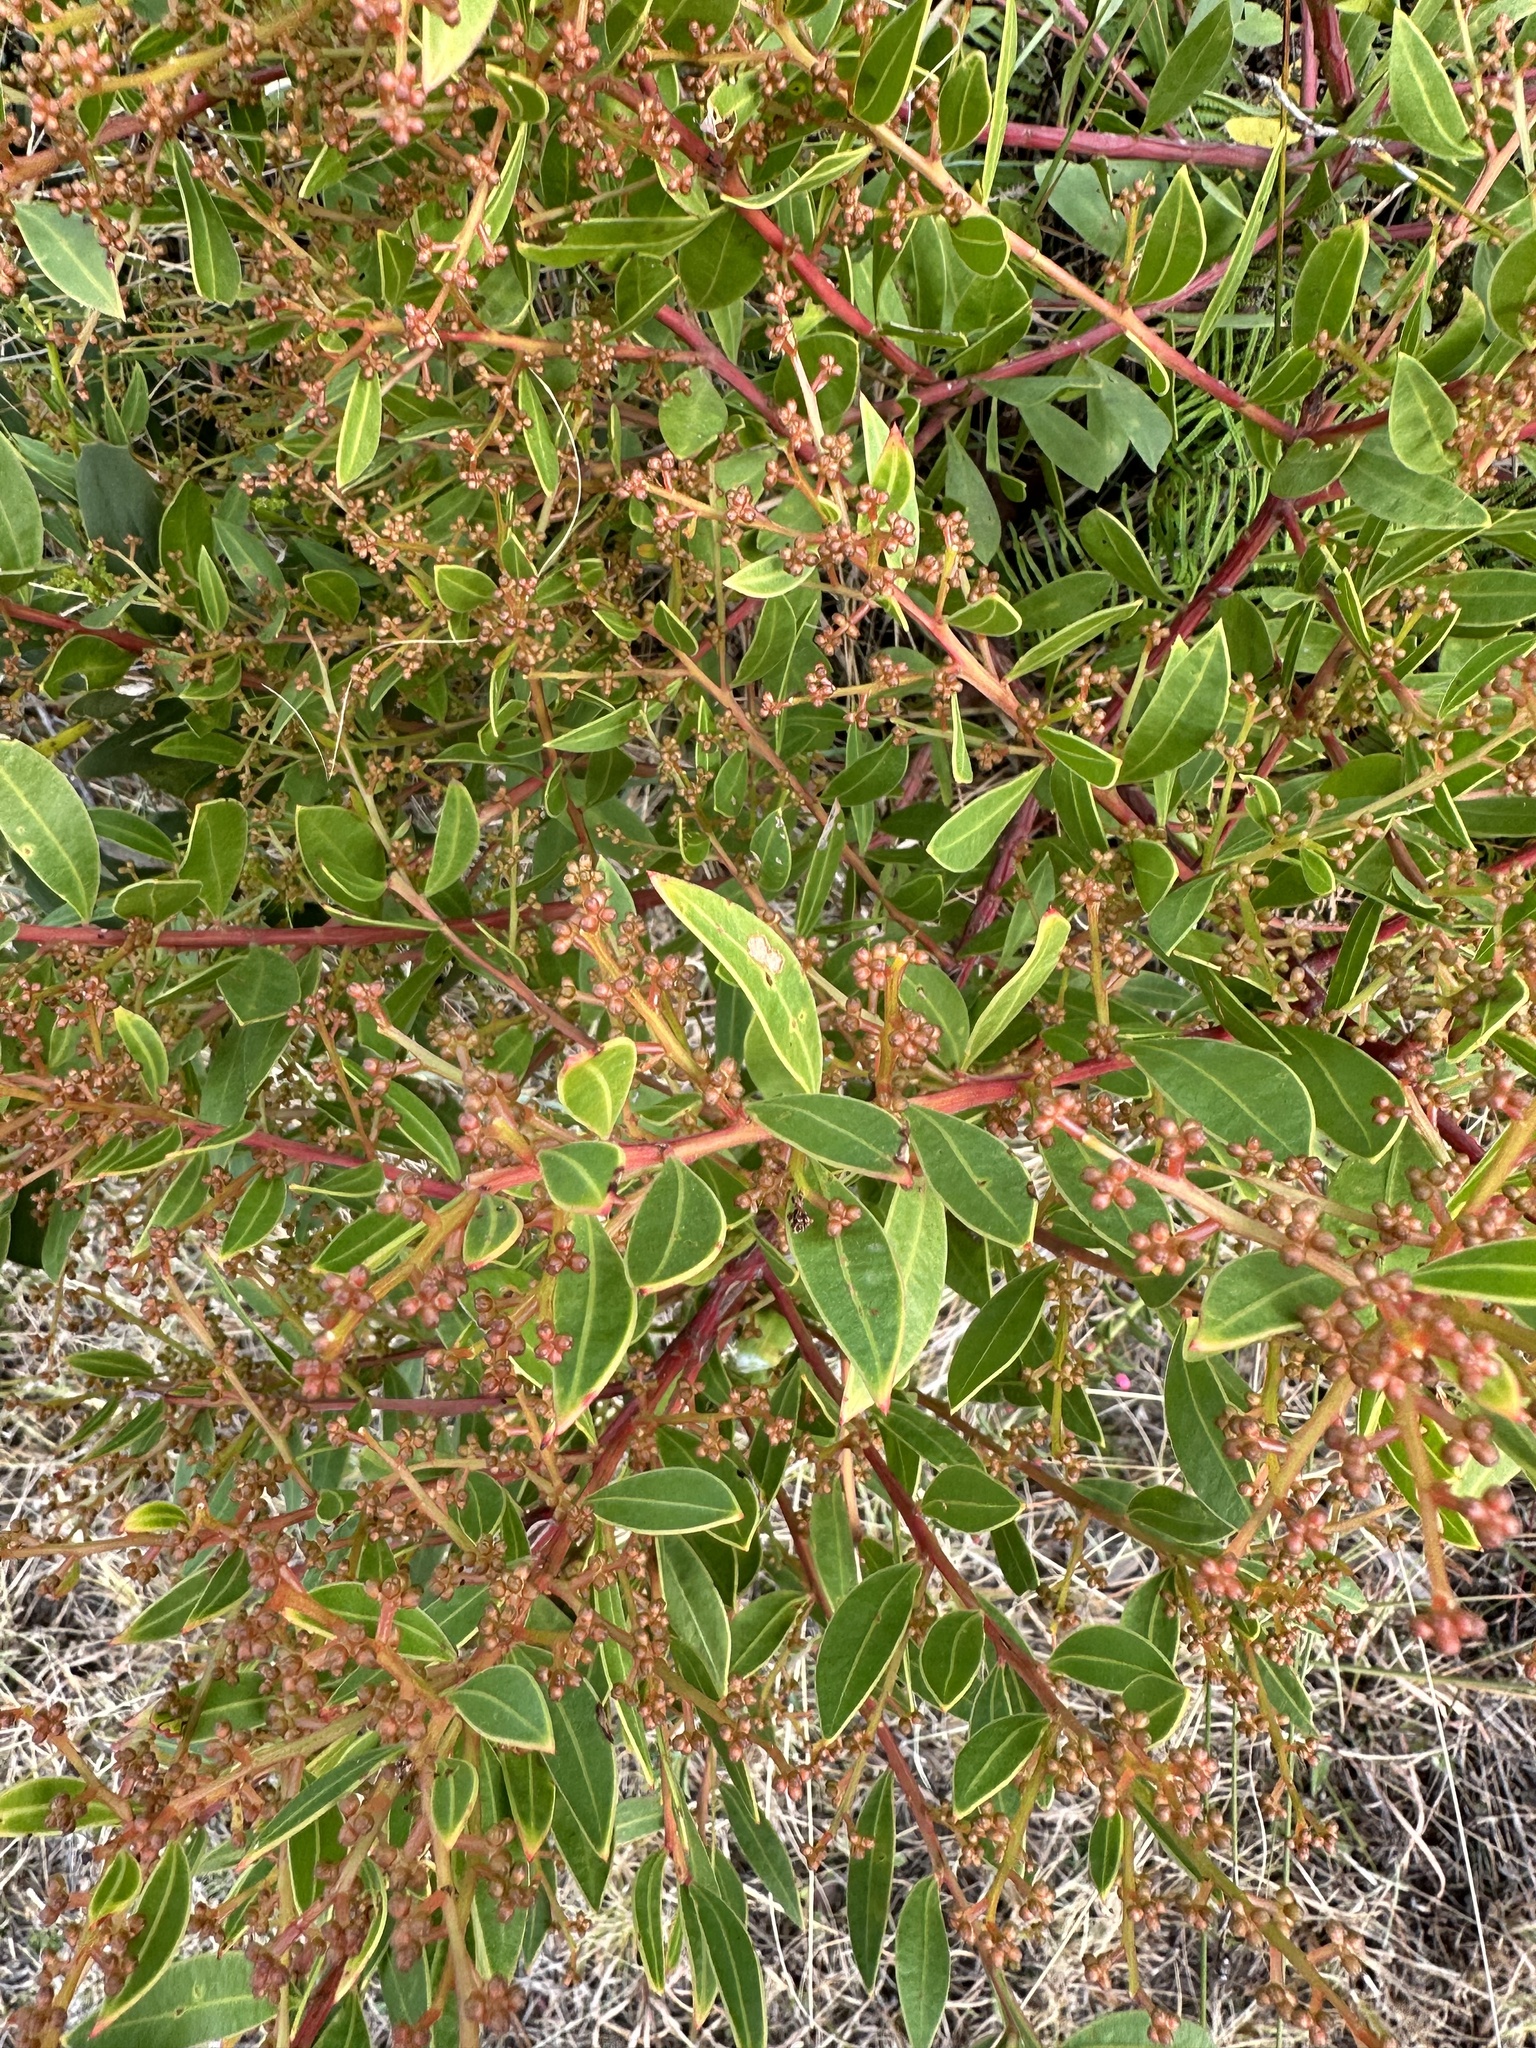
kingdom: Plantae
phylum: Tracheophyta
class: Magnoliopsida
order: Fabales
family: Fabaceae
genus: Acacia
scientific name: Acacia myrtifolia
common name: Myrtle wattle
